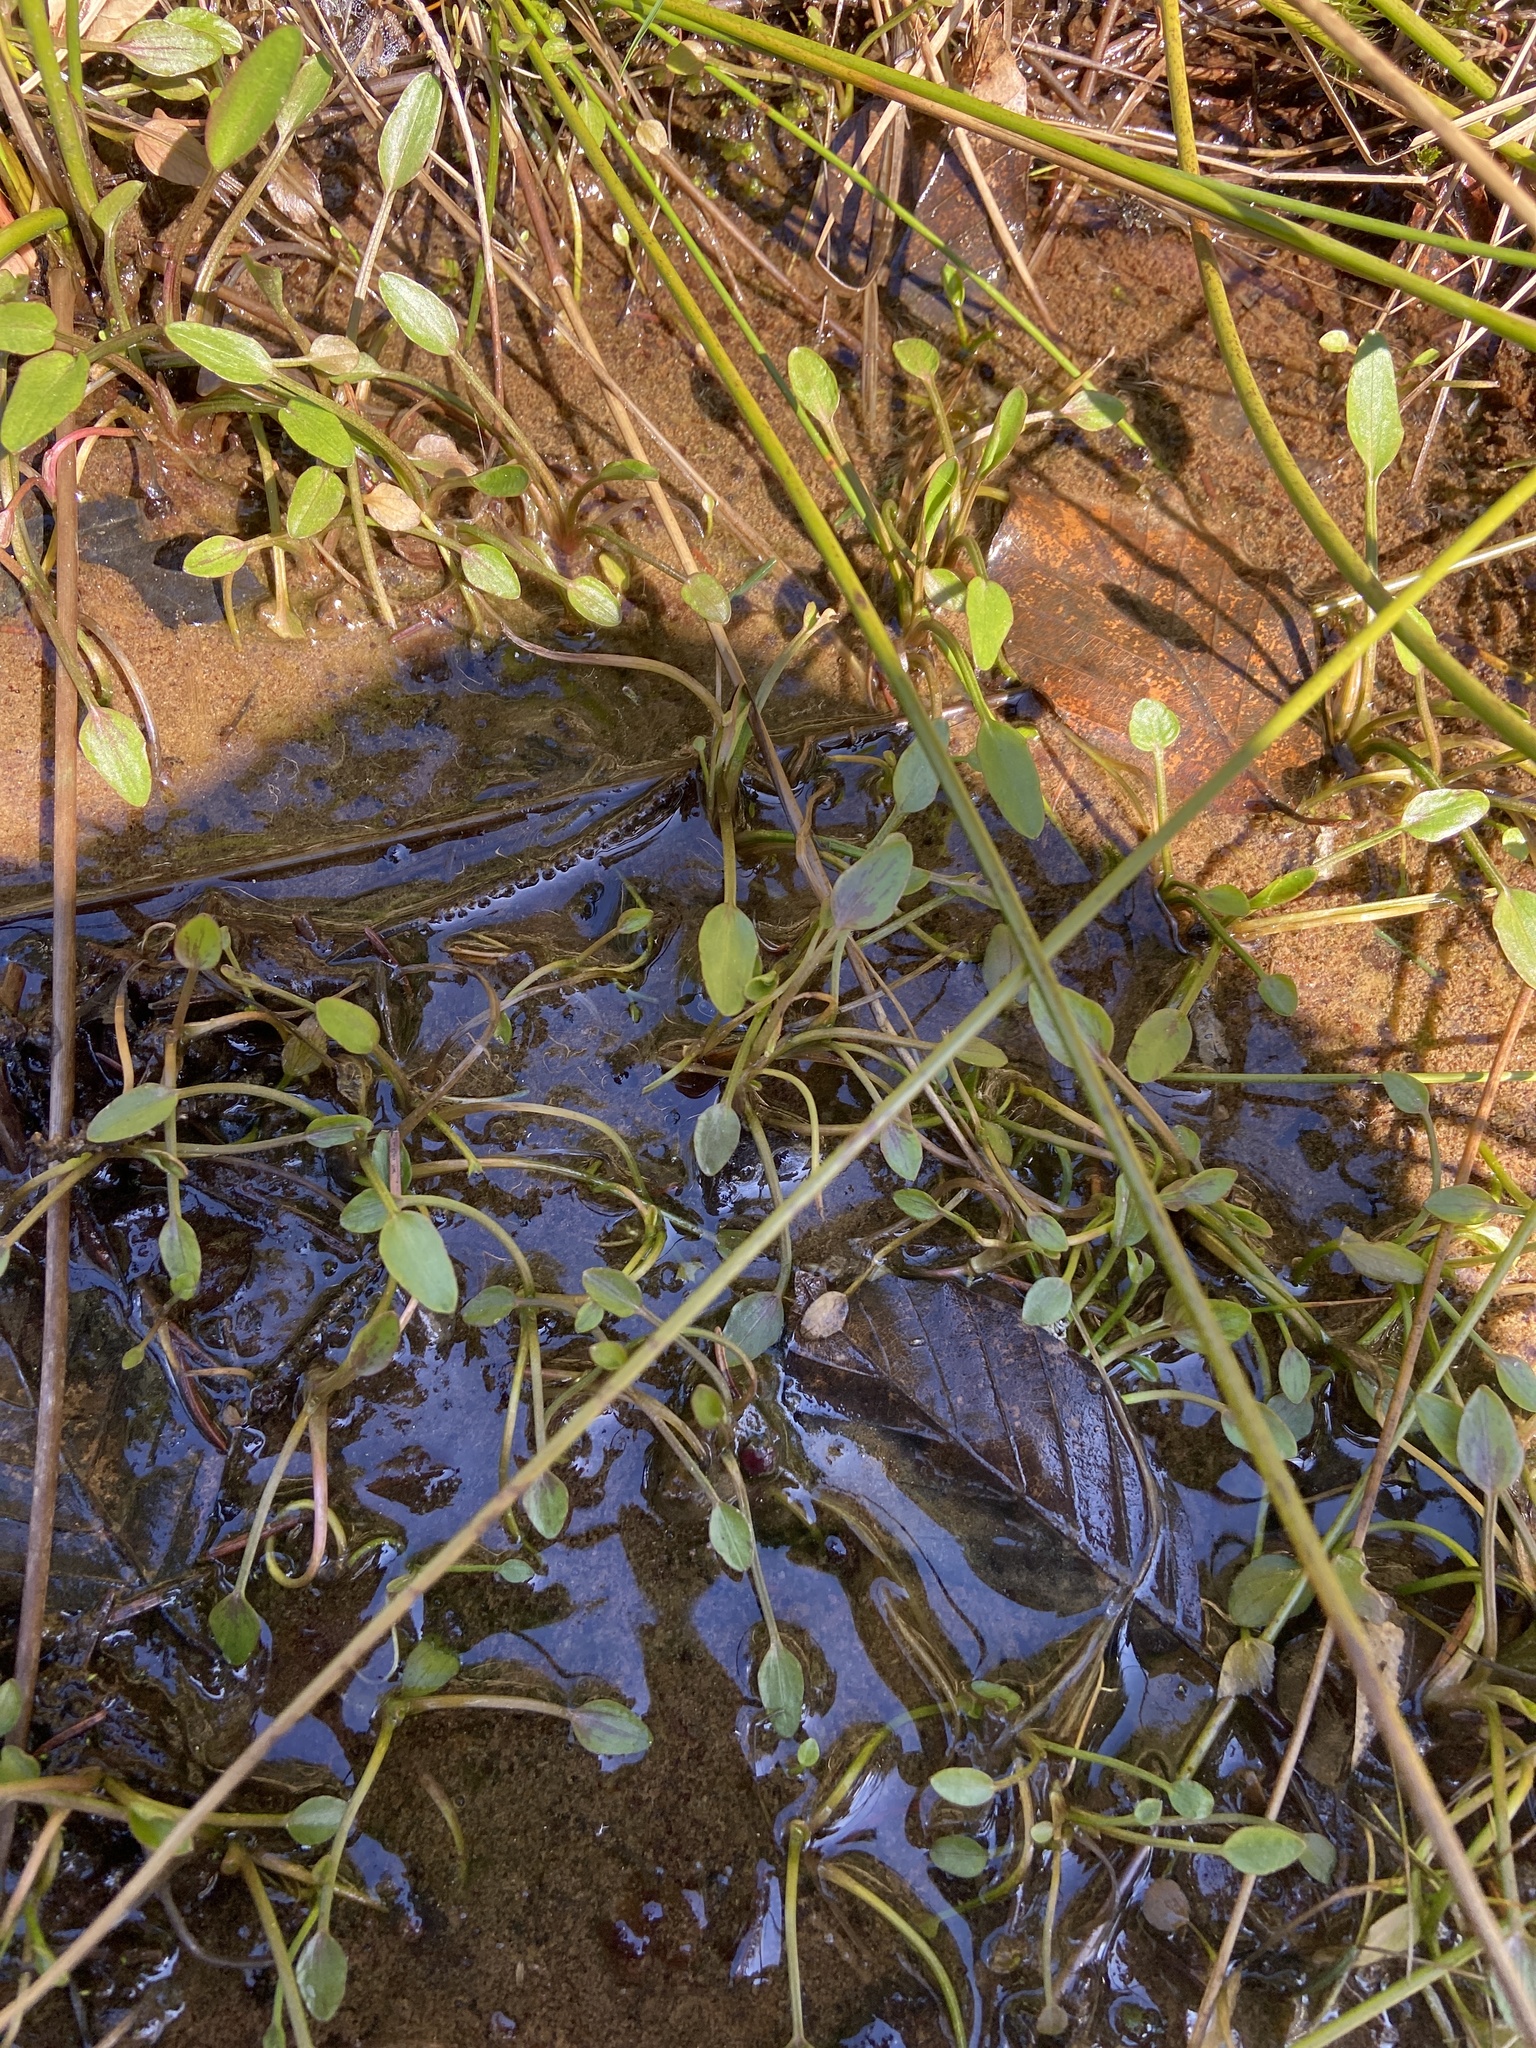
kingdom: Plantae
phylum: Tracheophyta
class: Magnoliopsida
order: Ranunculales
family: Ranunculaceae
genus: Ranunculus
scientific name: Ranunculus flammula
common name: Lesser spearwort
